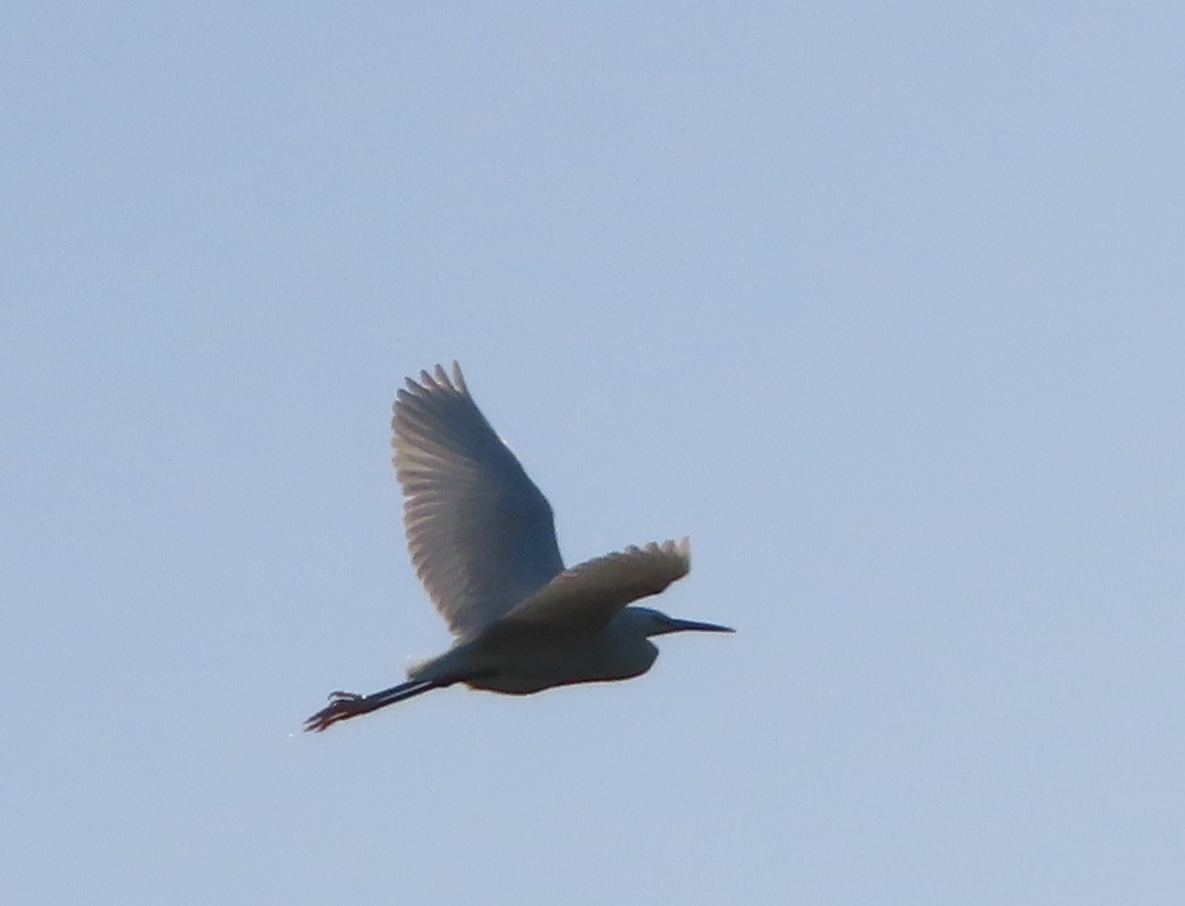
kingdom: Animalia
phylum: Chordata
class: Aves
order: Pelecaniformes
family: Ardeidae
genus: Egretta
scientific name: Egretta garzetta
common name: Little egret
